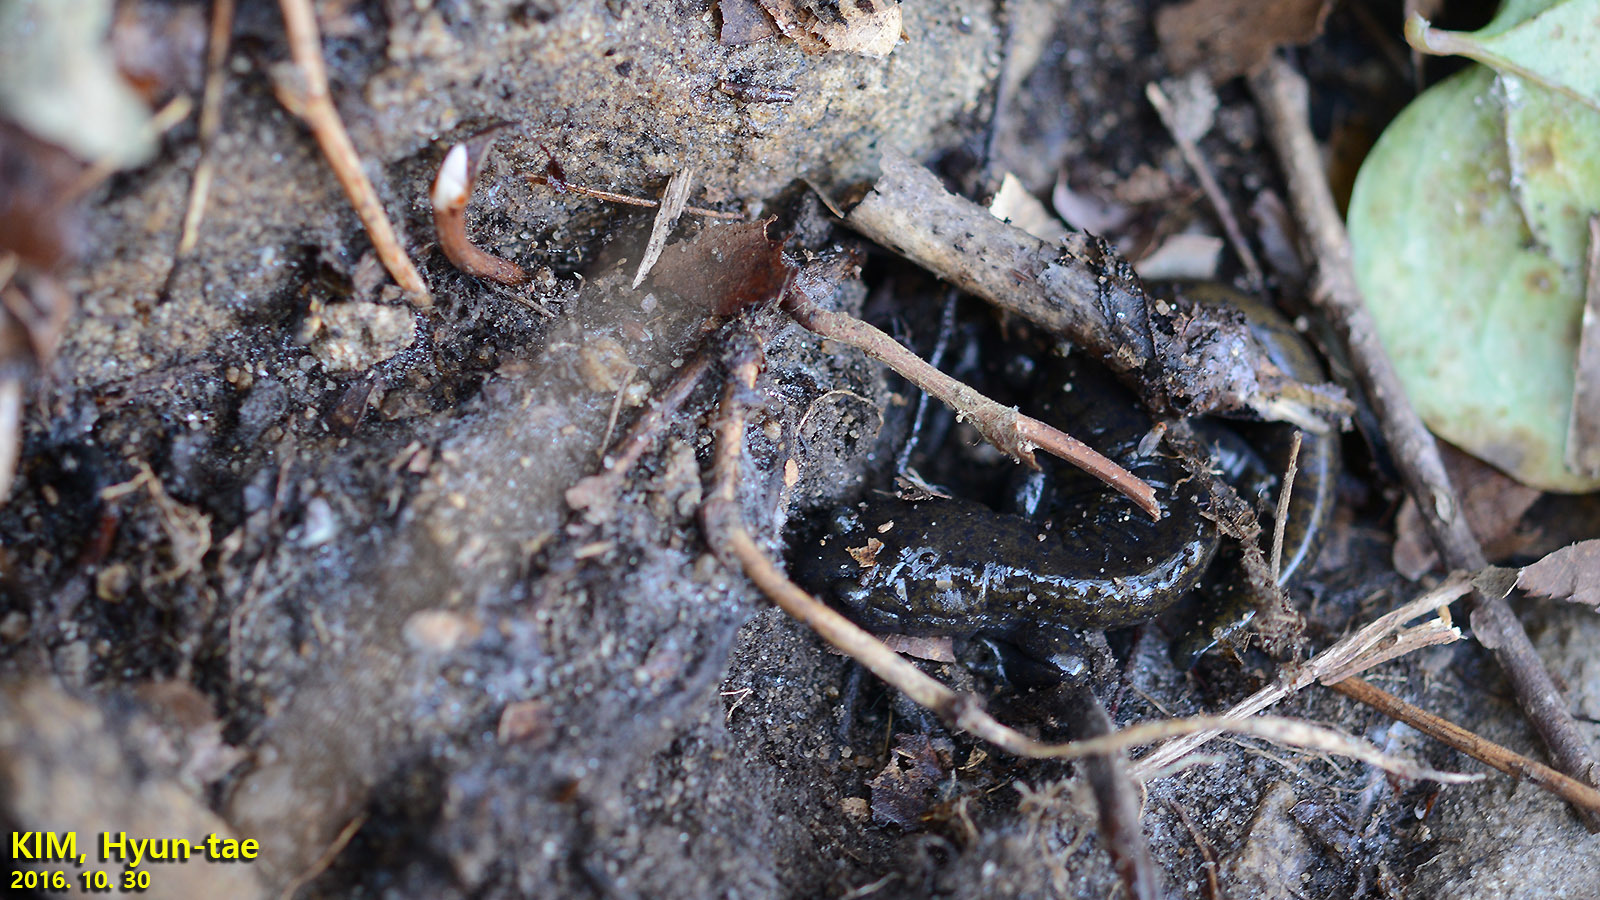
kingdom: Animalia
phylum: Chordata
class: Amphibia
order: Caudata
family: Hynobiidae
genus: Hynobius
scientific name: Hynobius leechii
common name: Gensan salamander
